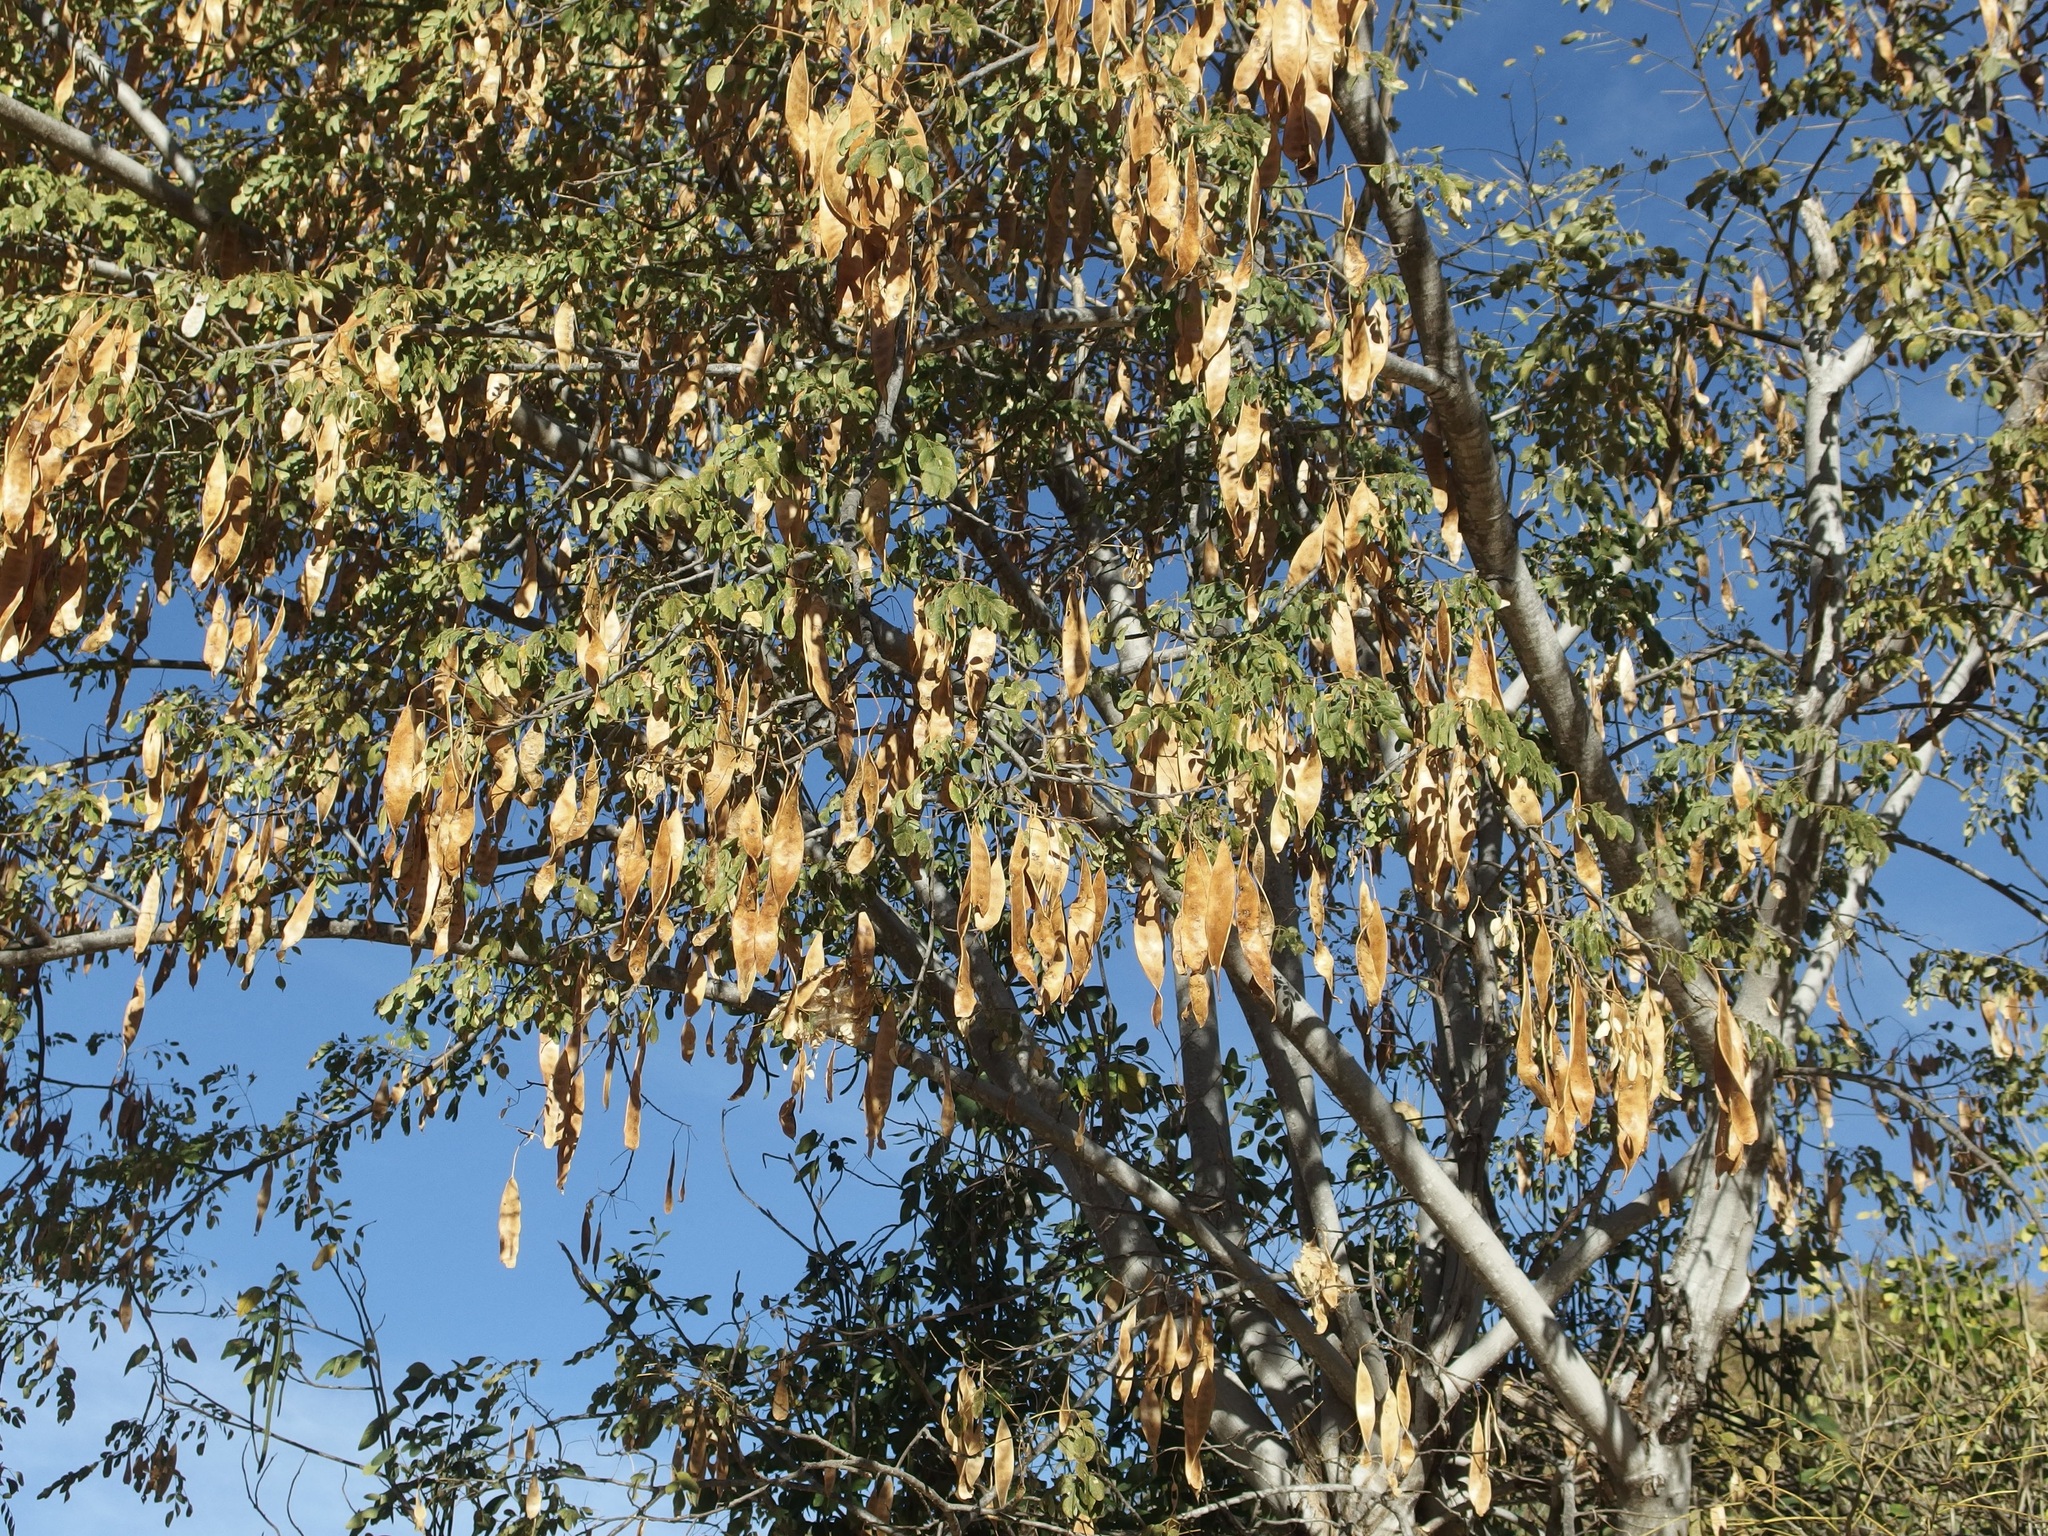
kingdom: Plantae
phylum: Tracheophyta
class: Magnoliopsida
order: Fabales
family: Fabaceae
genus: Albizia
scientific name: Albizia occidentalis
